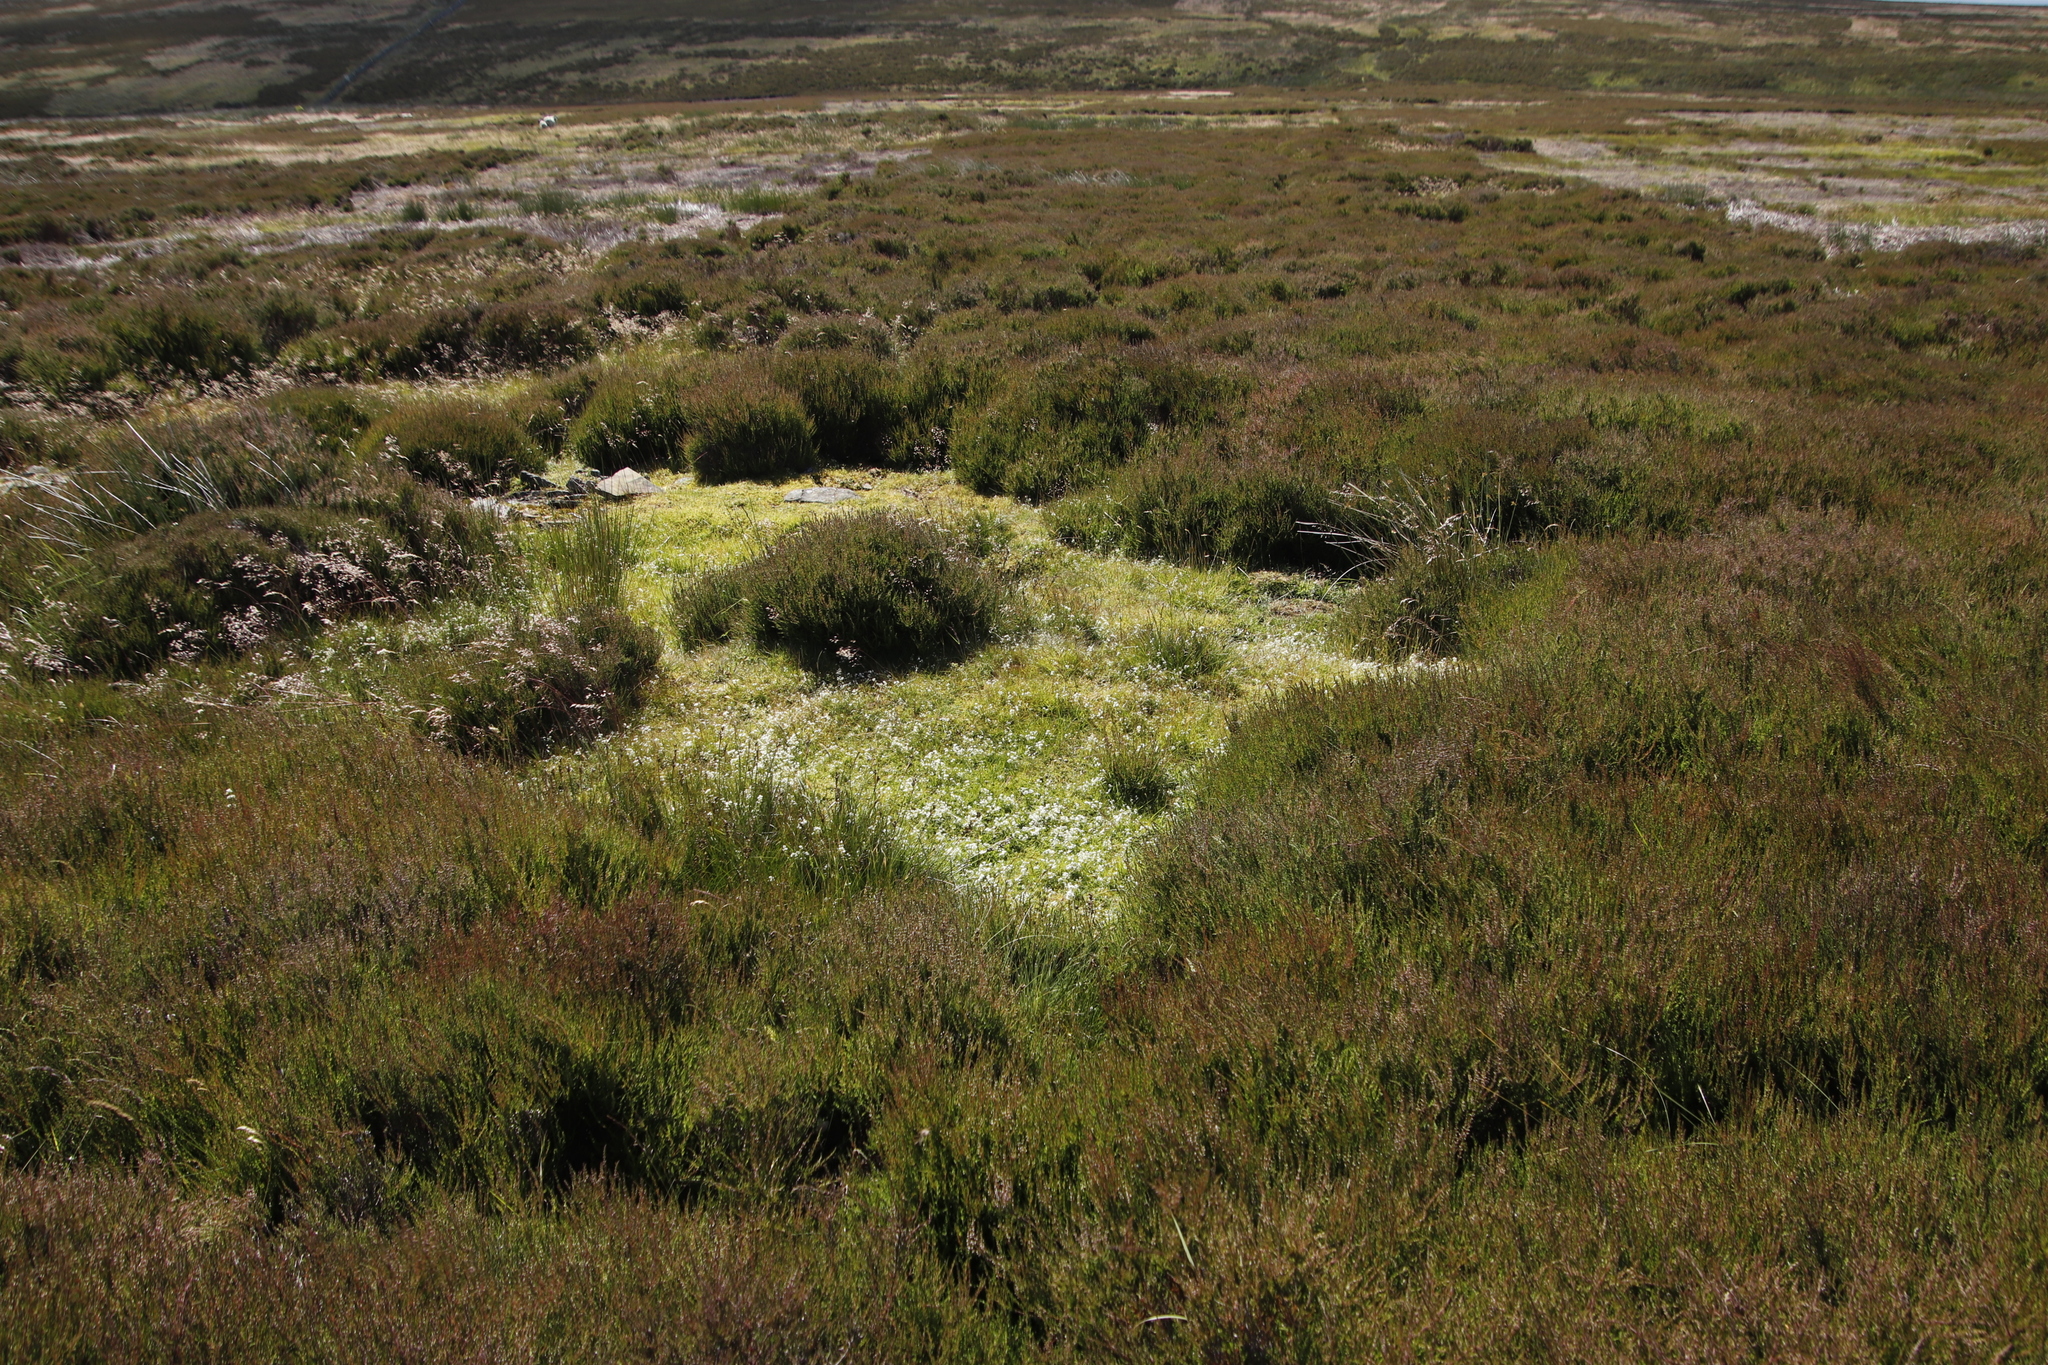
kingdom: Plantae
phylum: Tracheophyta
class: Magnoliopsida
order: Ericales
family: Ericaceae
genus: Calluna
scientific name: Calluna vulgaris
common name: Heather
